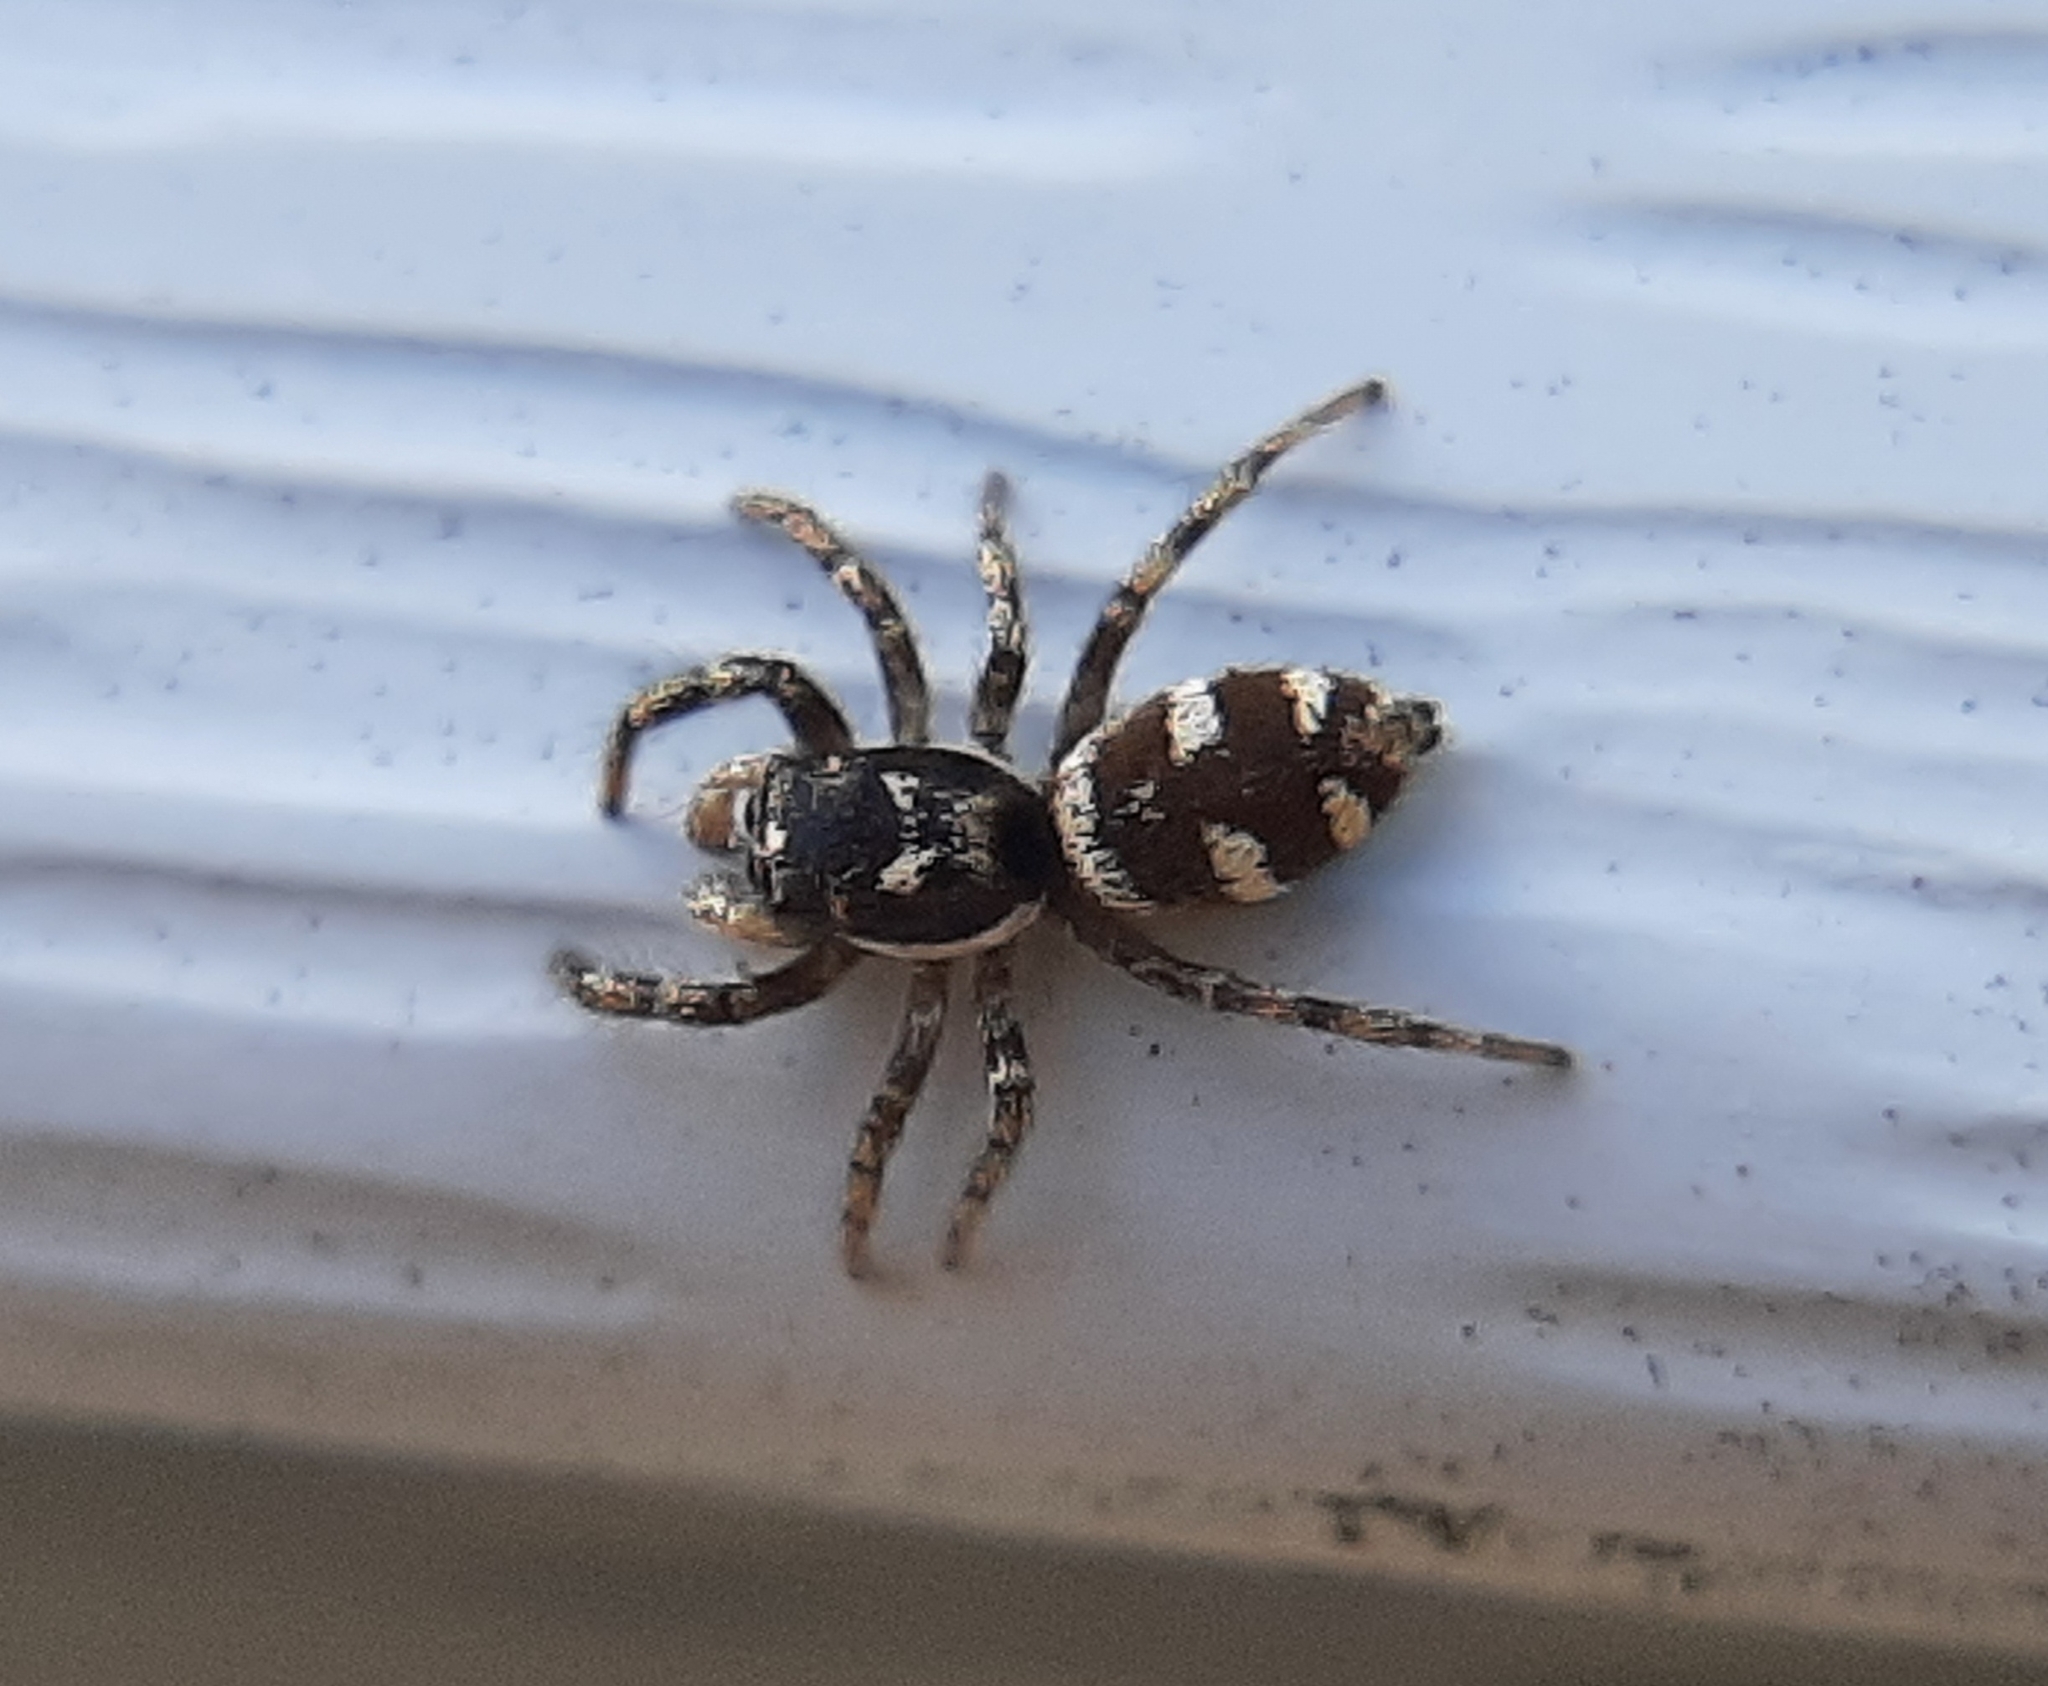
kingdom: Animalia
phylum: Arthropoda
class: Arachnida
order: Araneae
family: Salticidae
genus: Salticus
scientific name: Salticus scenicus
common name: Zebra jumper
